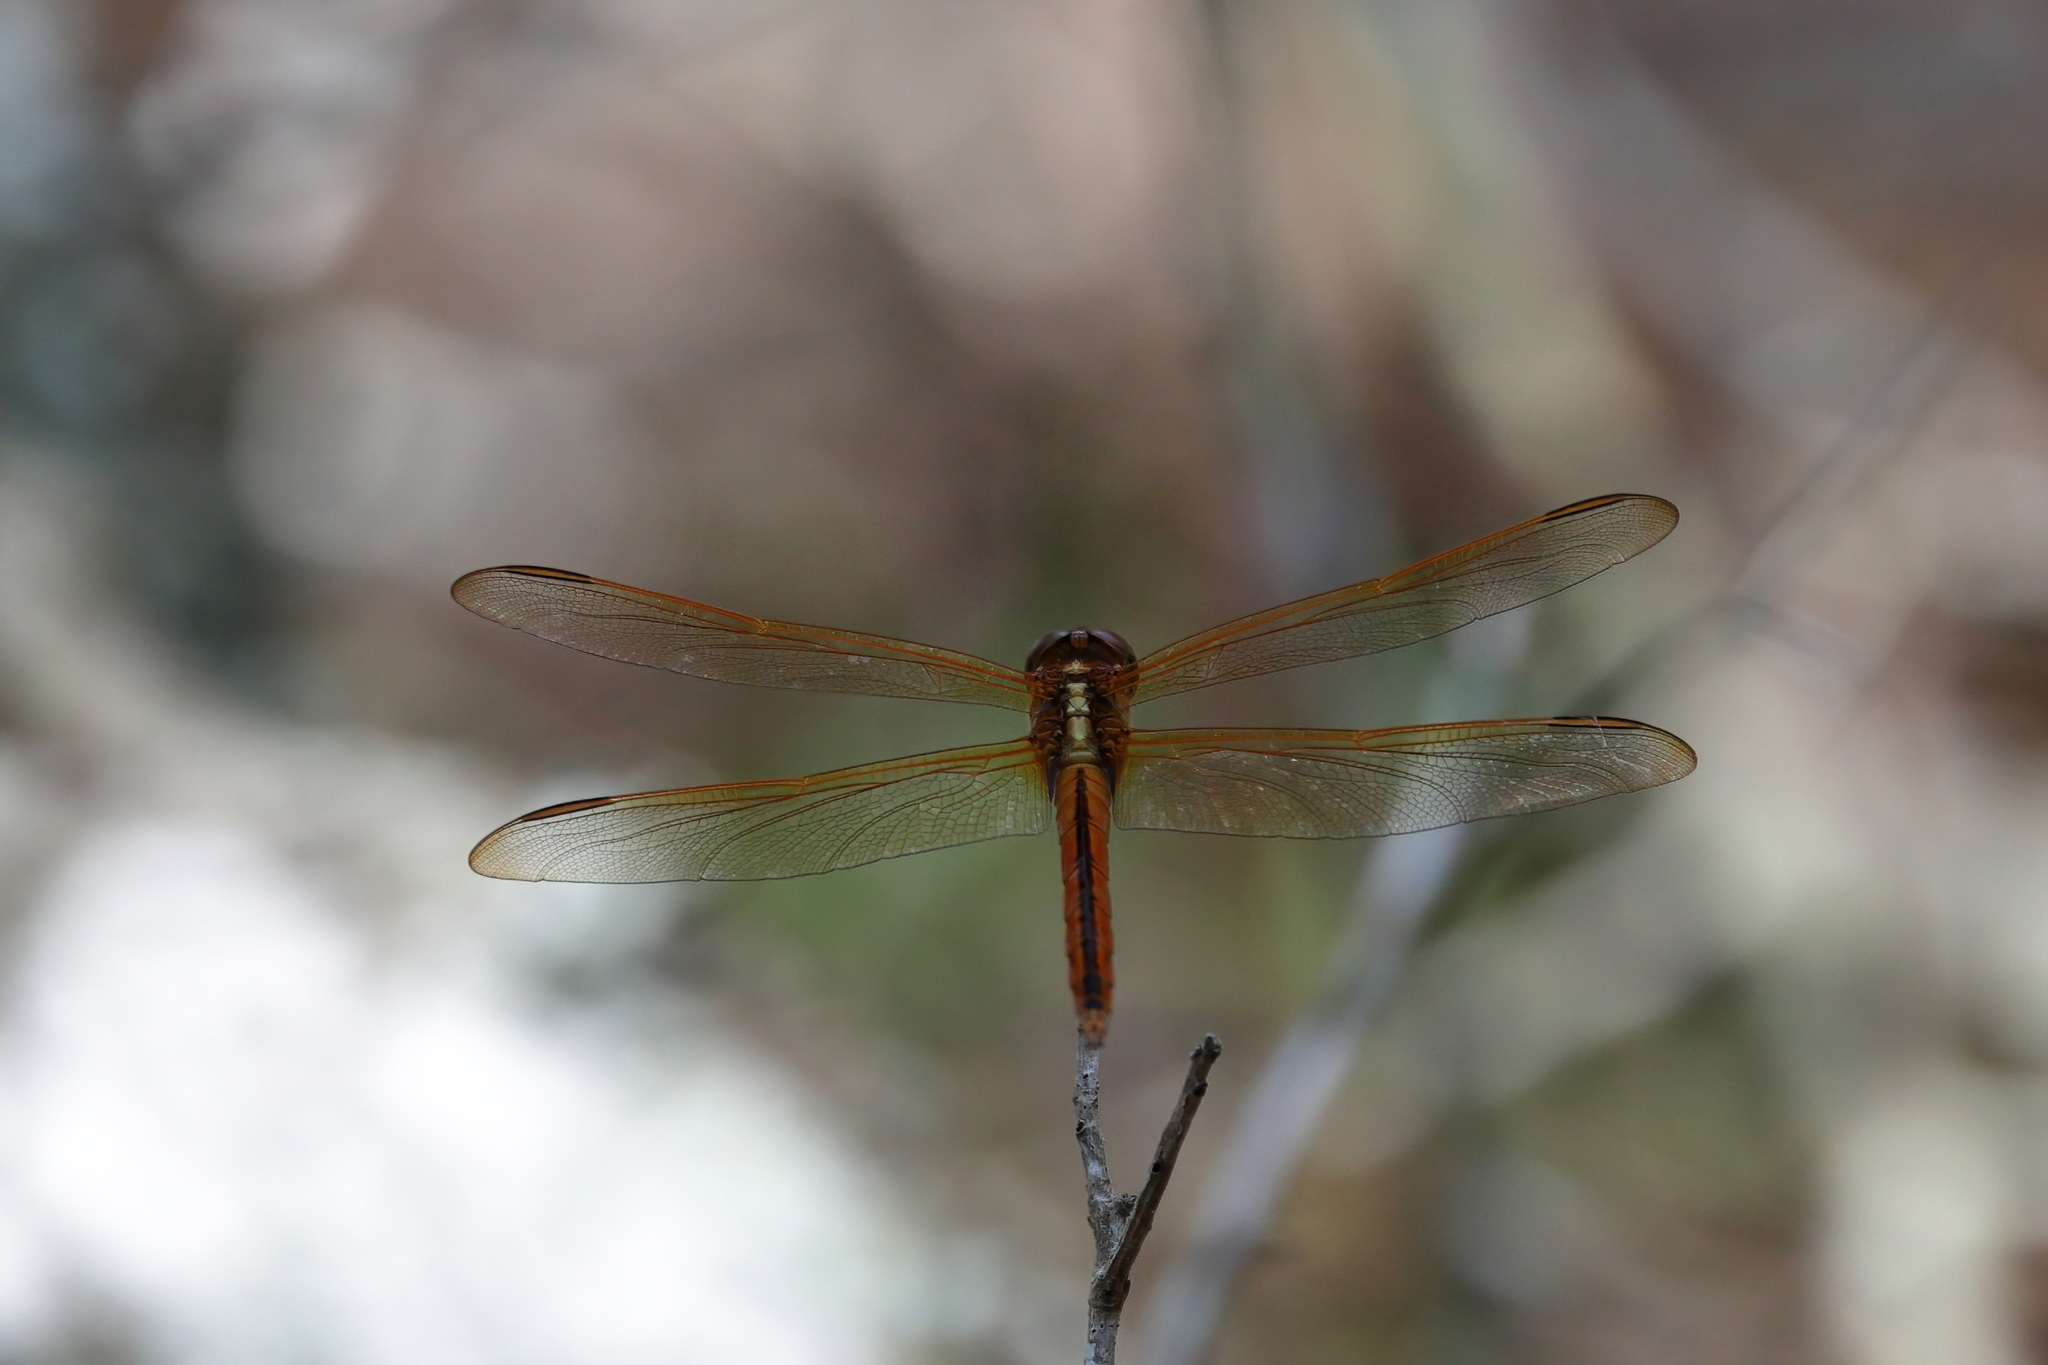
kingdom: Animalia
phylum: Arthropoda
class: Insecta
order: Odonata
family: Libellulidae
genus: Libellula
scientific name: Libellula needhami
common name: Needham's skimmer
